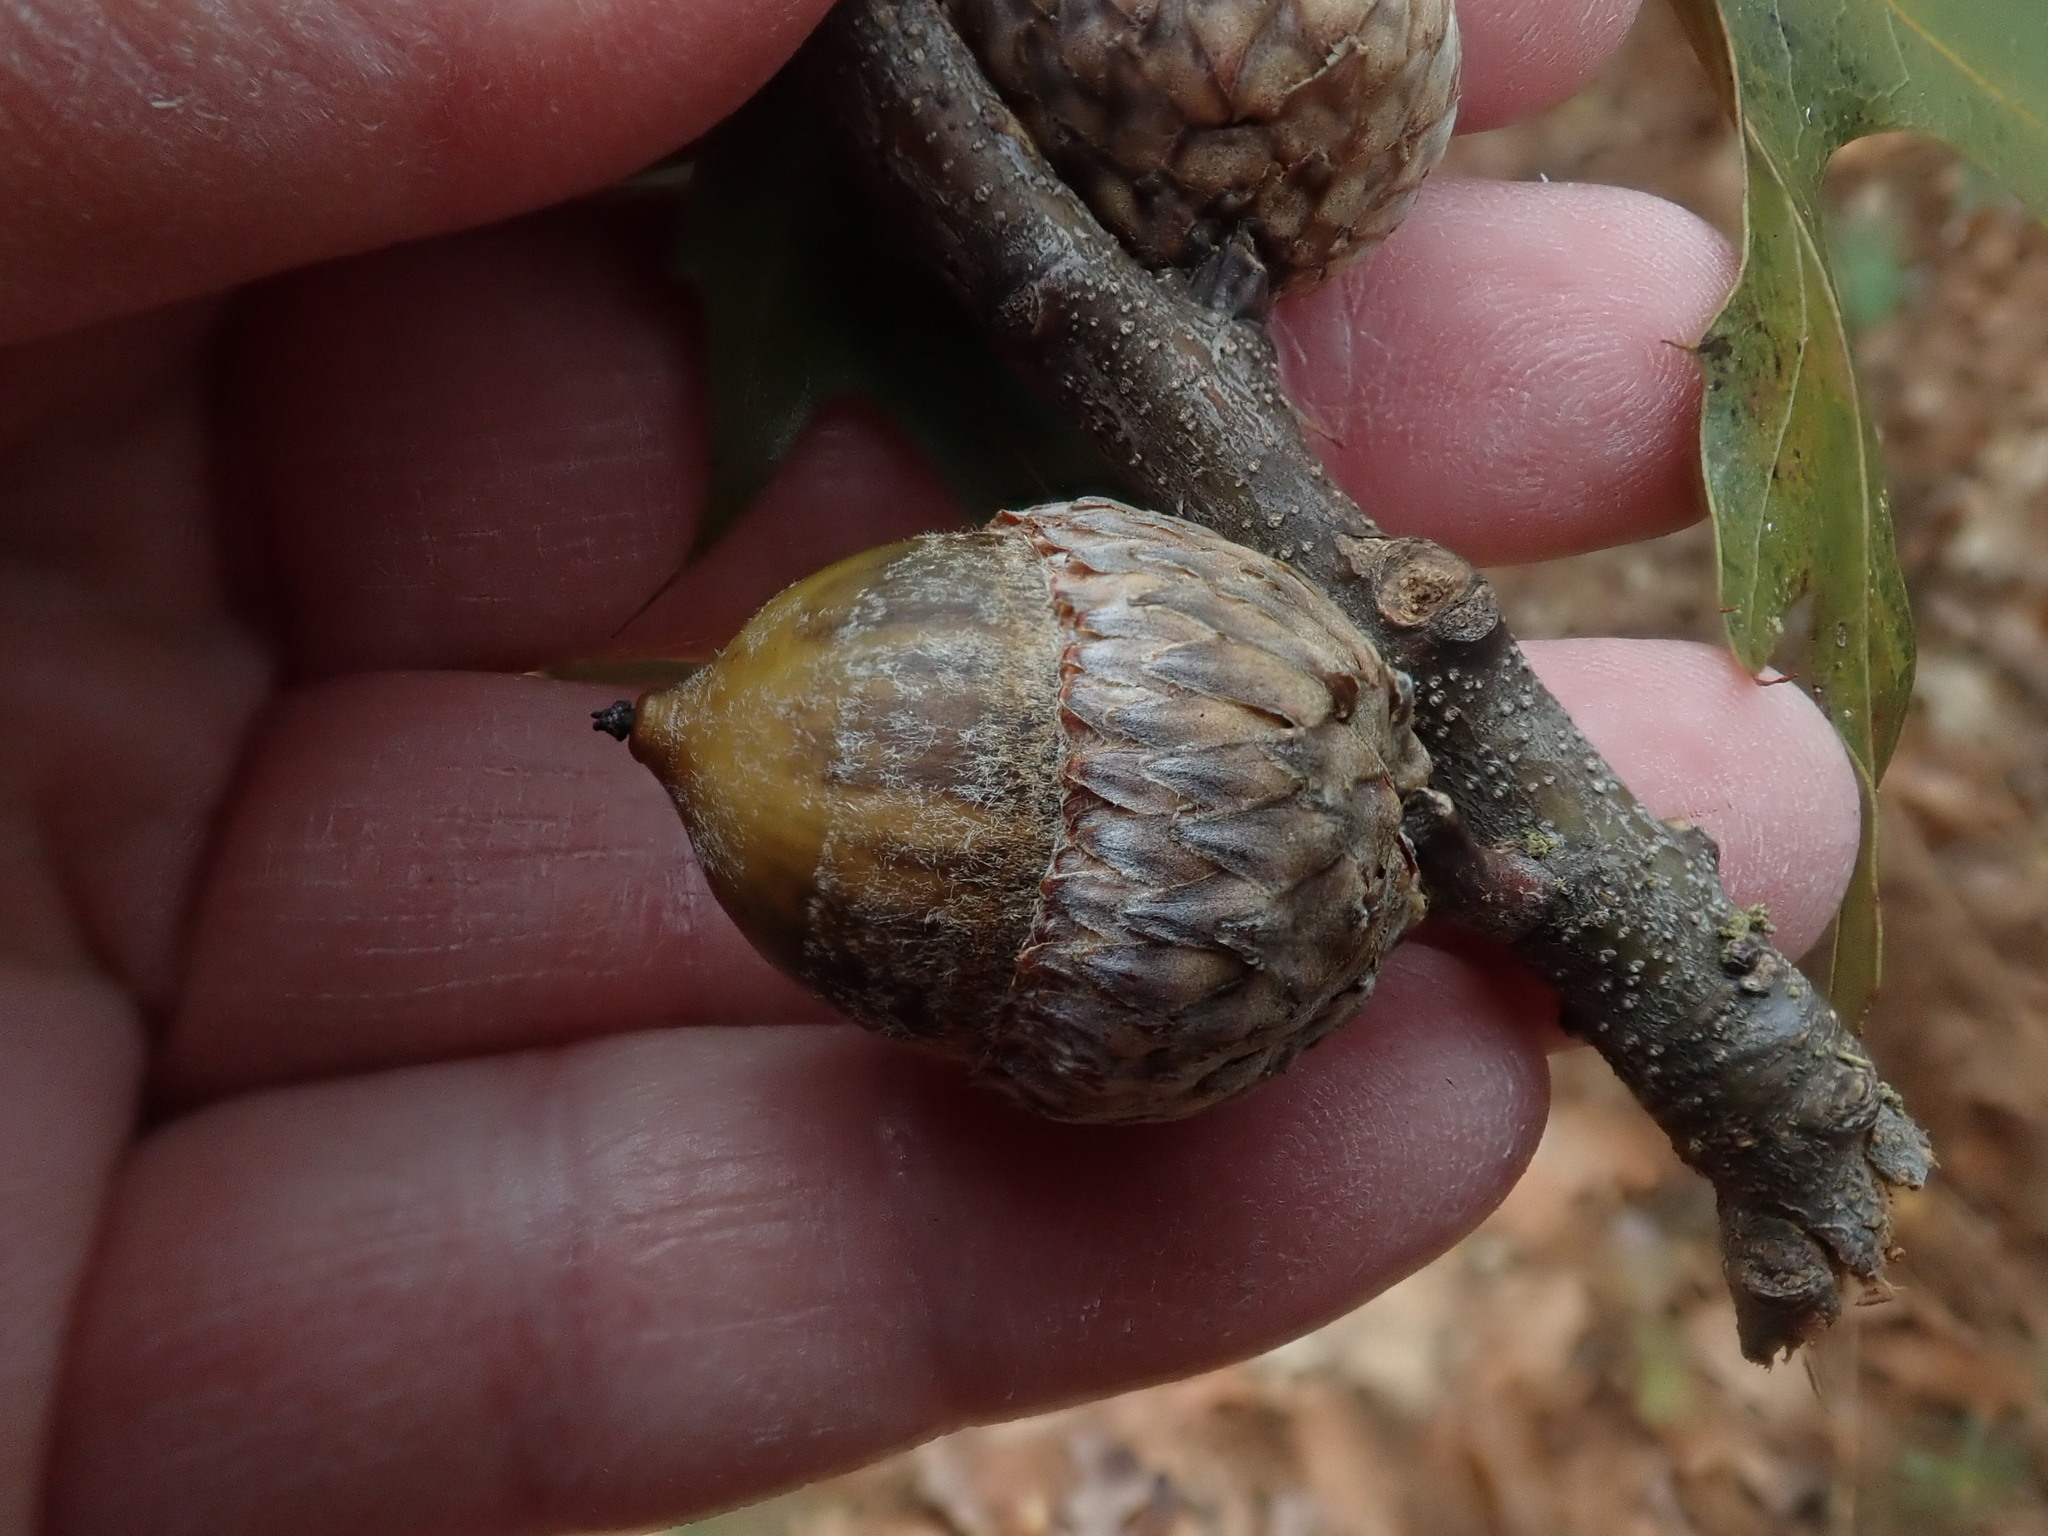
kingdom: Plantae
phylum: Tracheophyta
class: Magnoliopsida
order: Fagales
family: Fagaceae
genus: Quercus
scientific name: Quercus coccinea
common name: Scarlet oak
